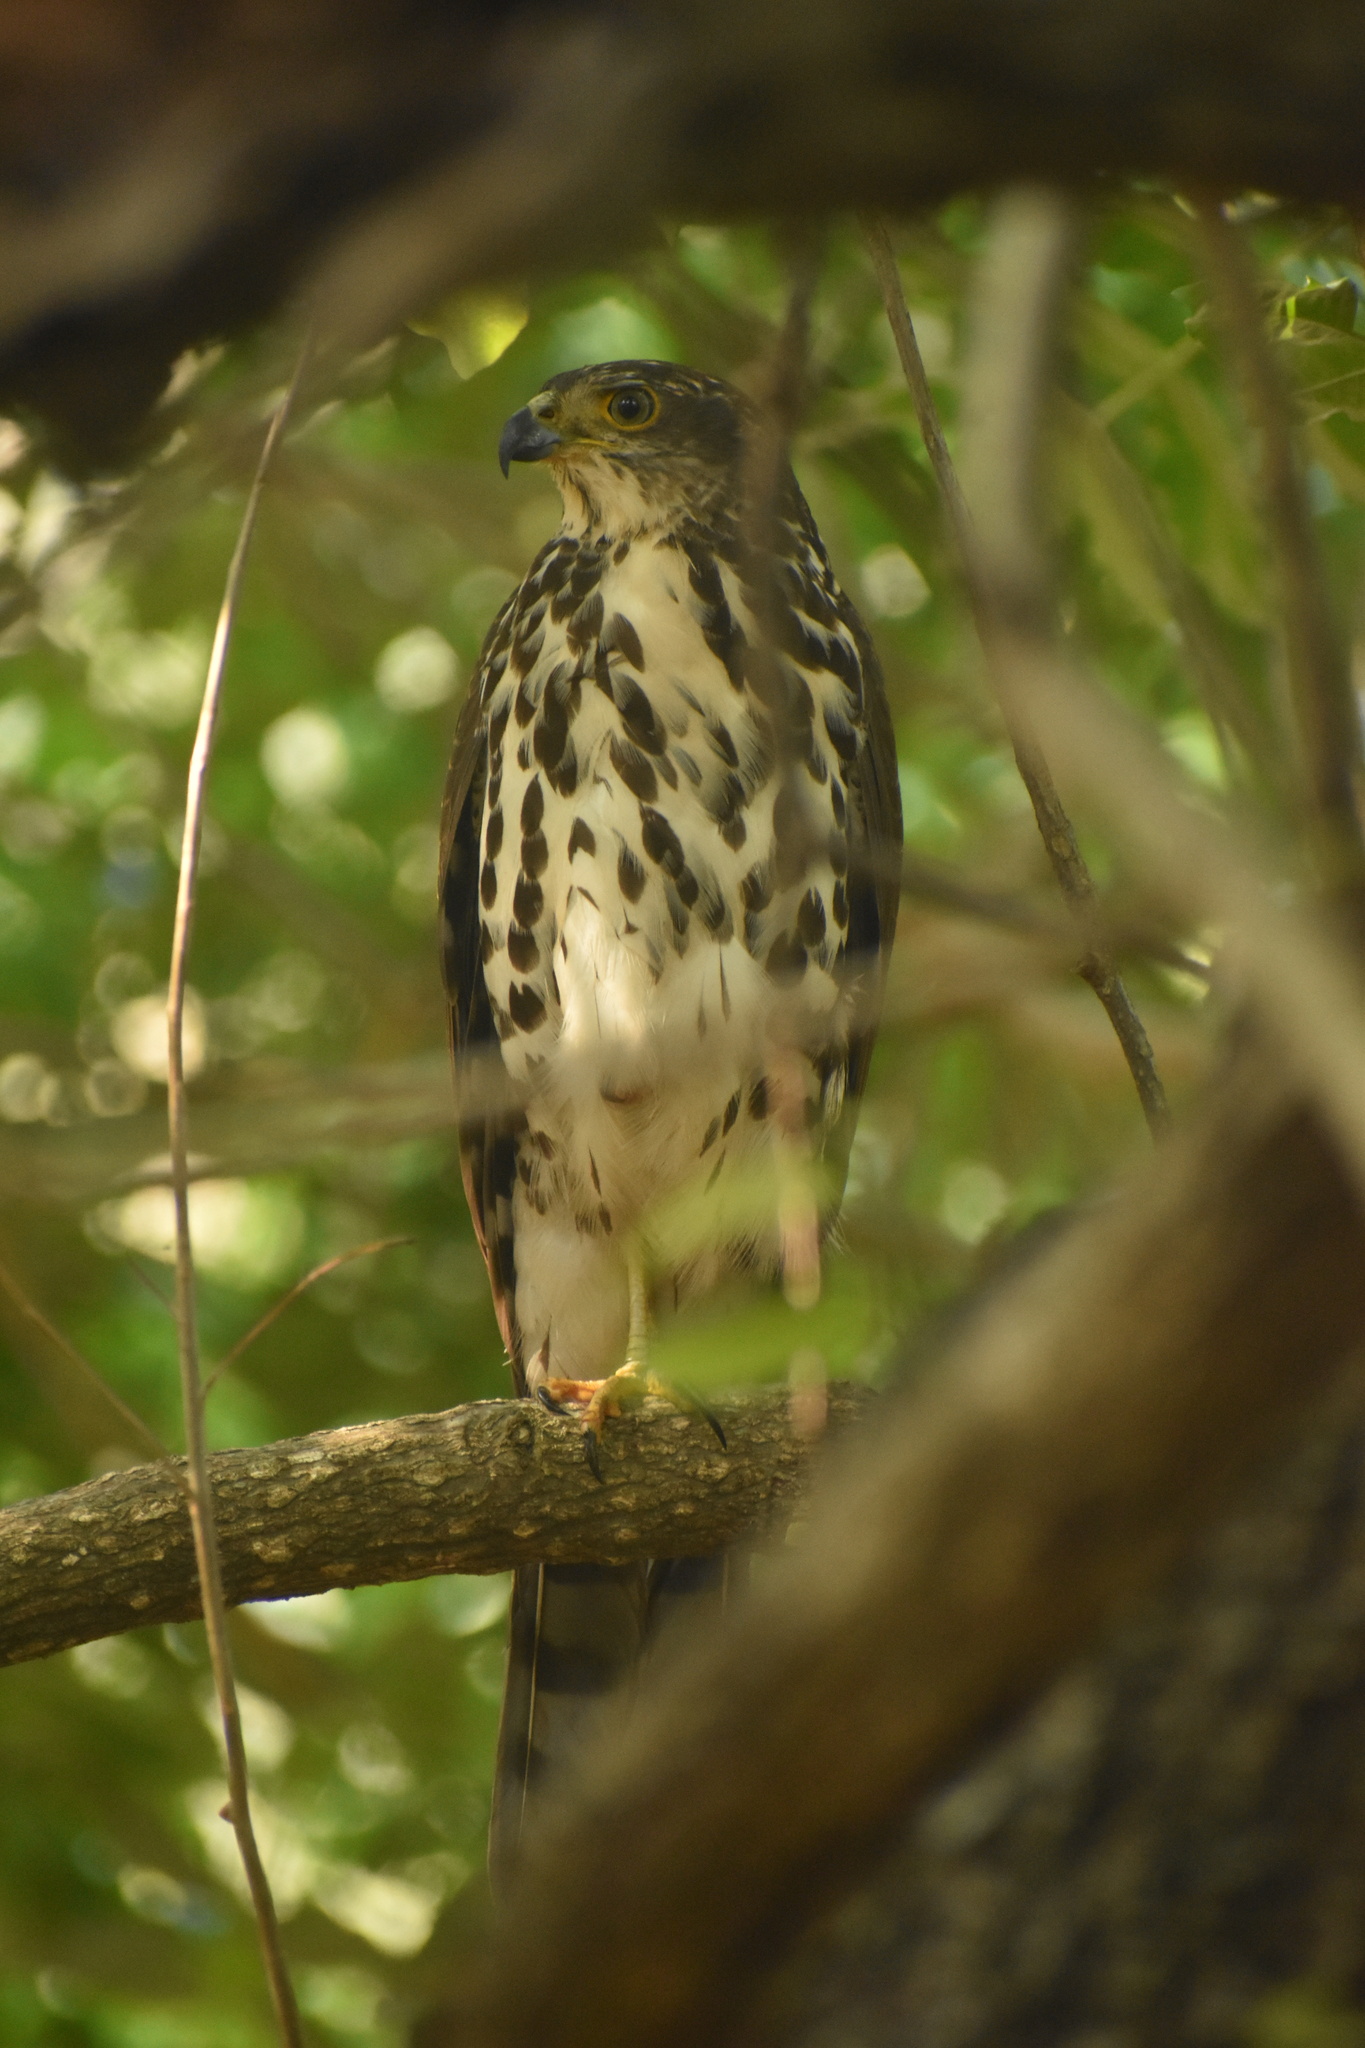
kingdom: Animalia
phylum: Chordata
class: Aves
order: Accipitriformes
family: Accipitridae
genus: Accipiter
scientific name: Accipiter tachiro
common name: African goshawk
